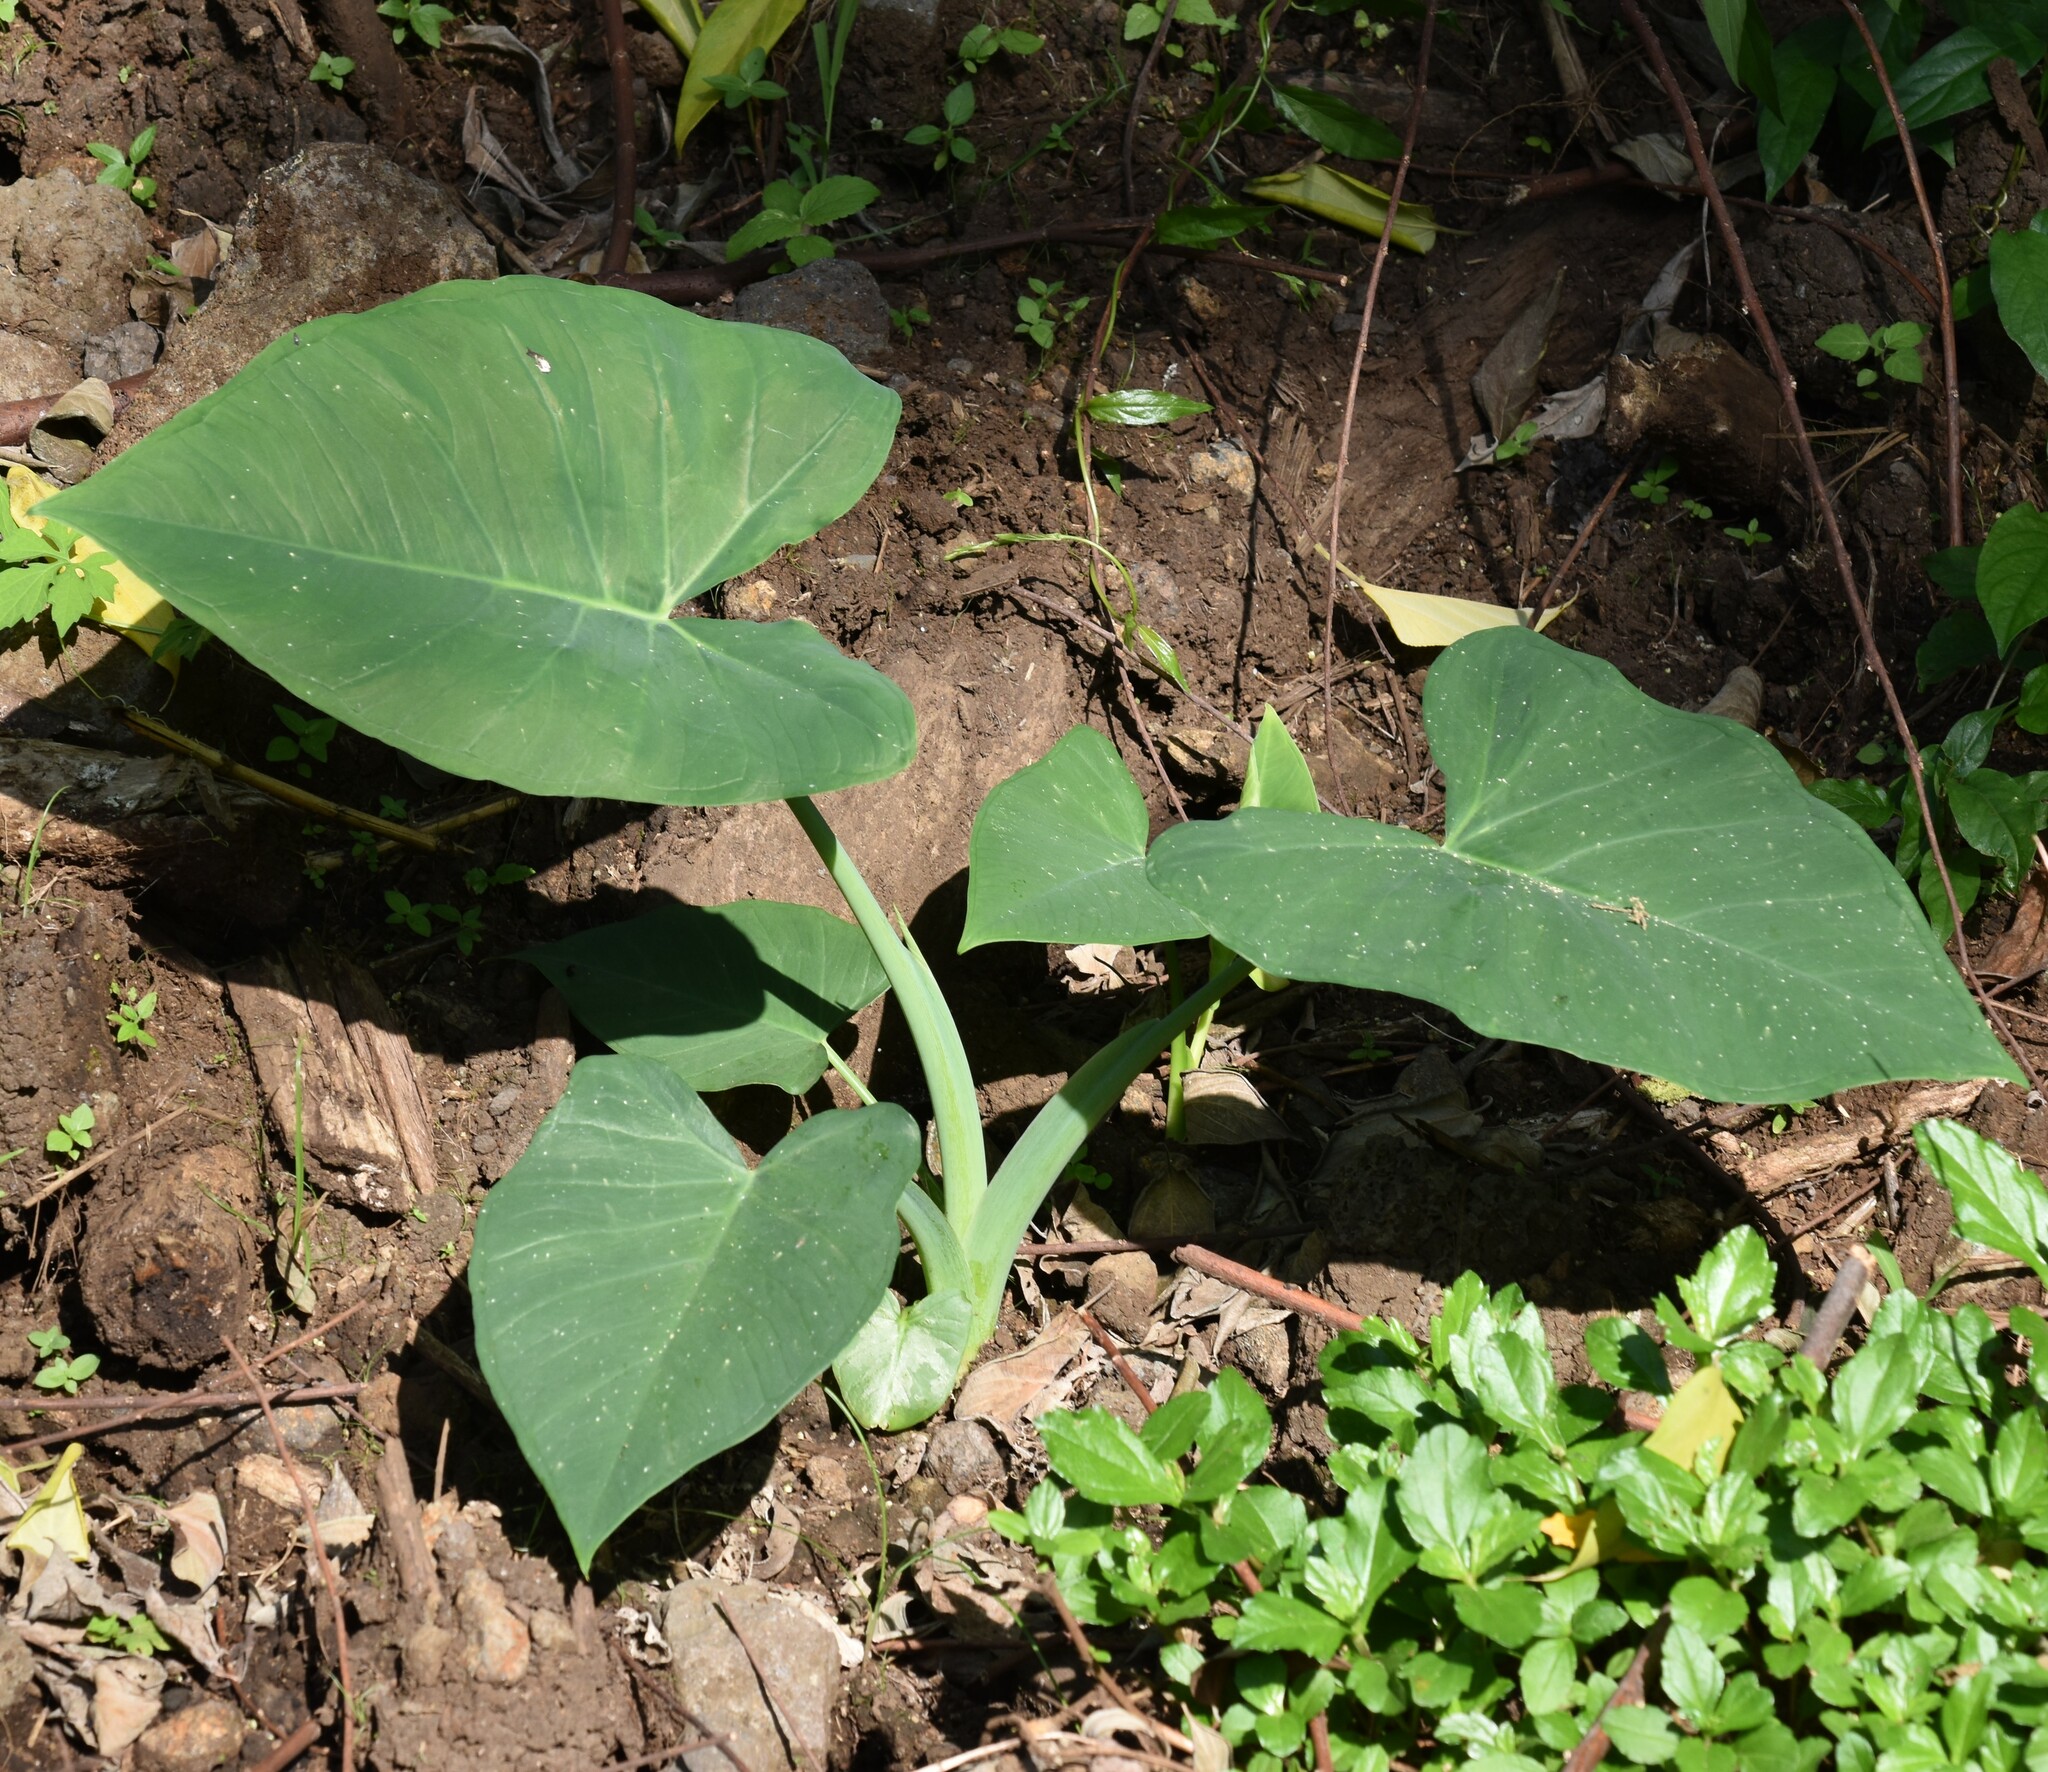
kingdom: Plantae
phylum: Tracheophyta
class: Liliopsida
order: Alismatales
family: Araceae
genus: Xanthosoma
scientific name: Xanthosoma robustum
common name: Capote
